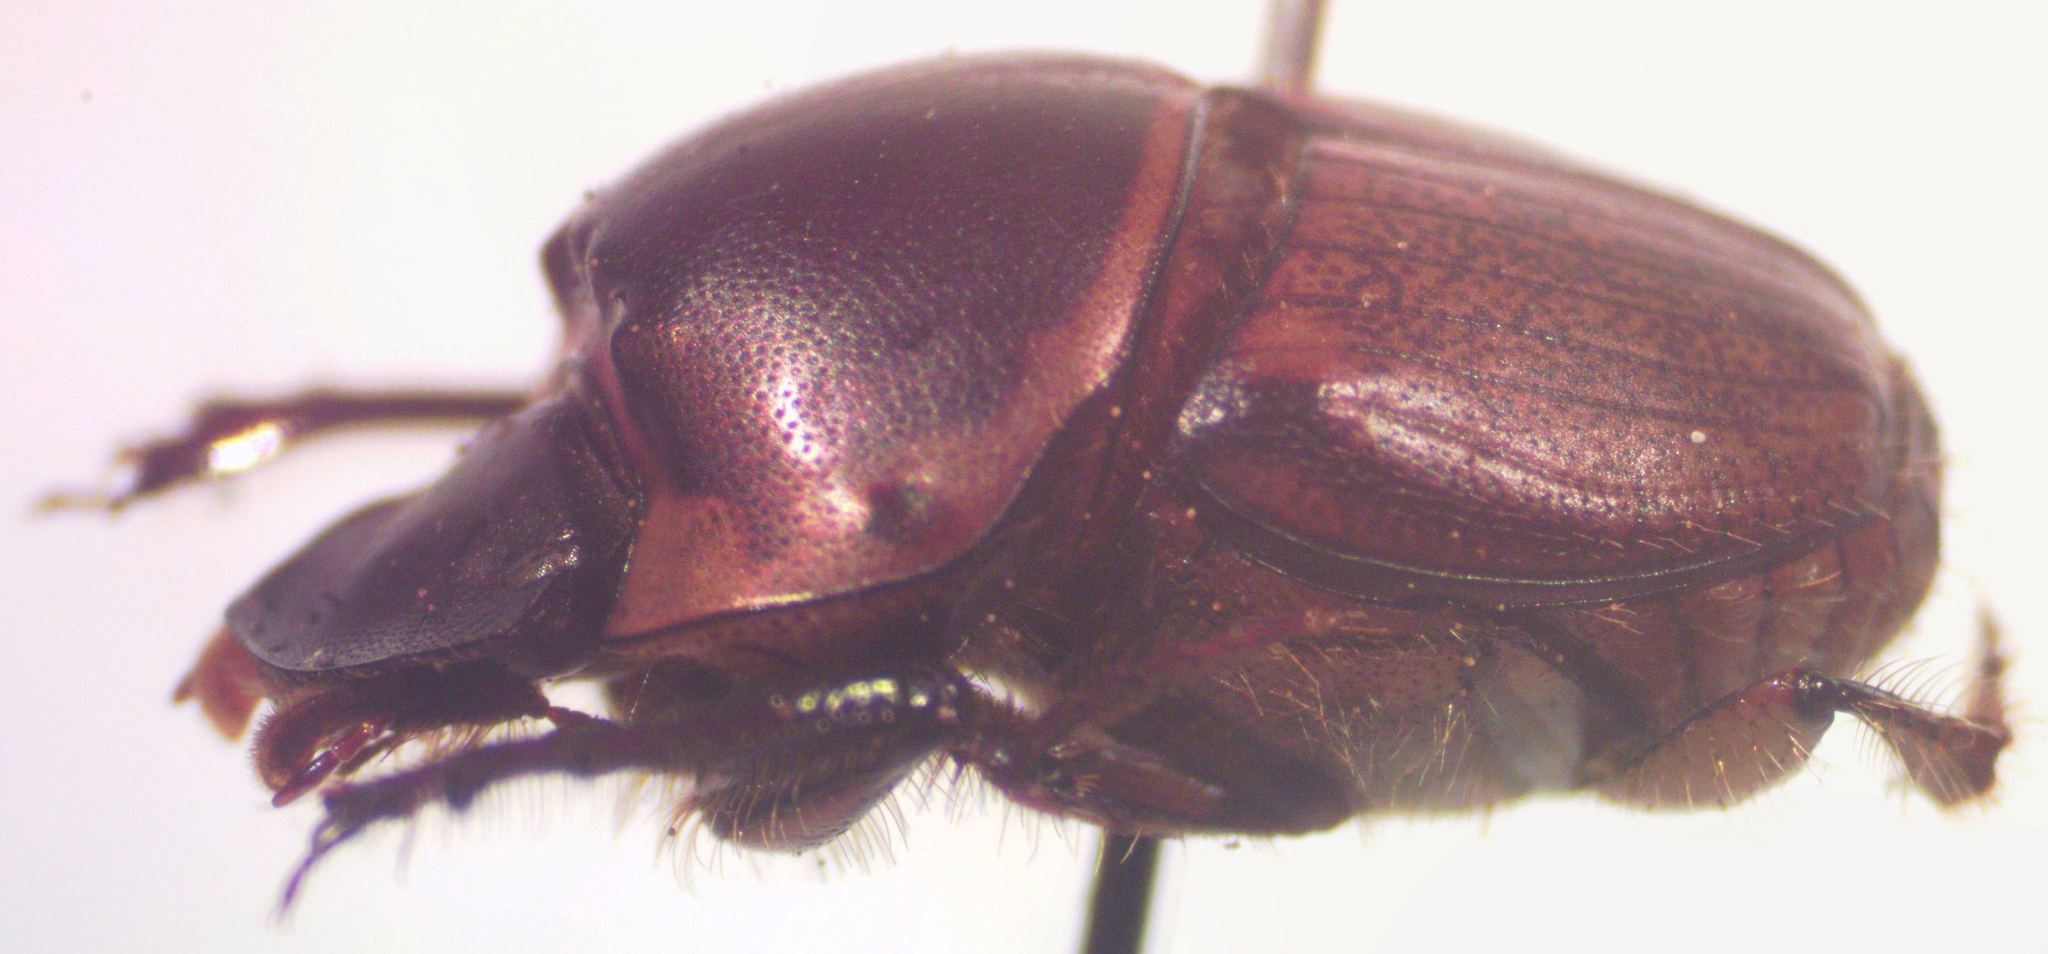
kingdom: Animalia
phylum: Arthropoda
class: Insecta
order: Coleoptera
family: Scarabaeidae
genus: Onthophagus
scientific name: Onthophagus gazellinus
